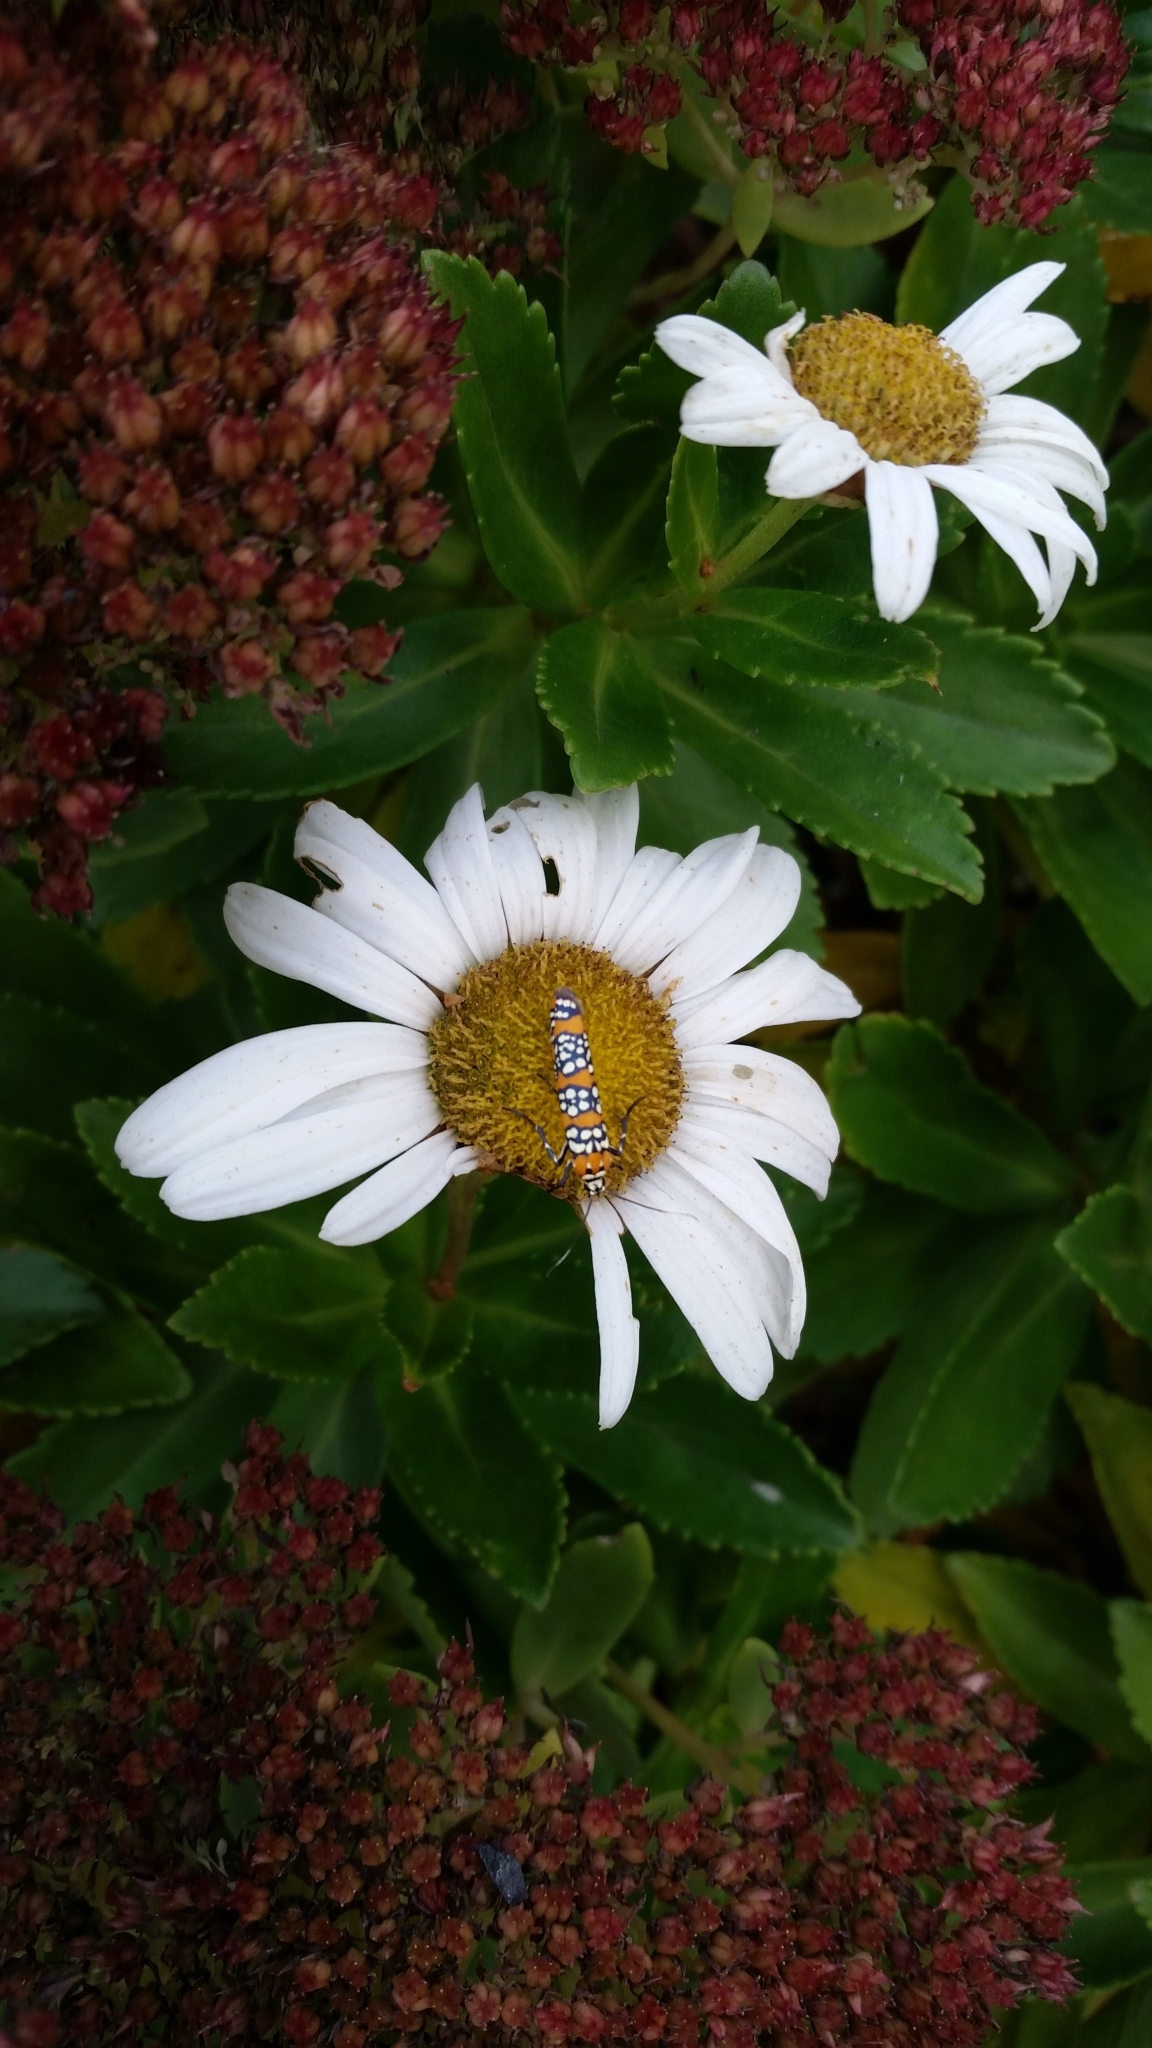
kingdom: Animalia
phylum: Arthropoda
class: Insecta
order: Lepidoptera
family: Attevidae
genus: Atteva
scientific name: Atteva punctella
